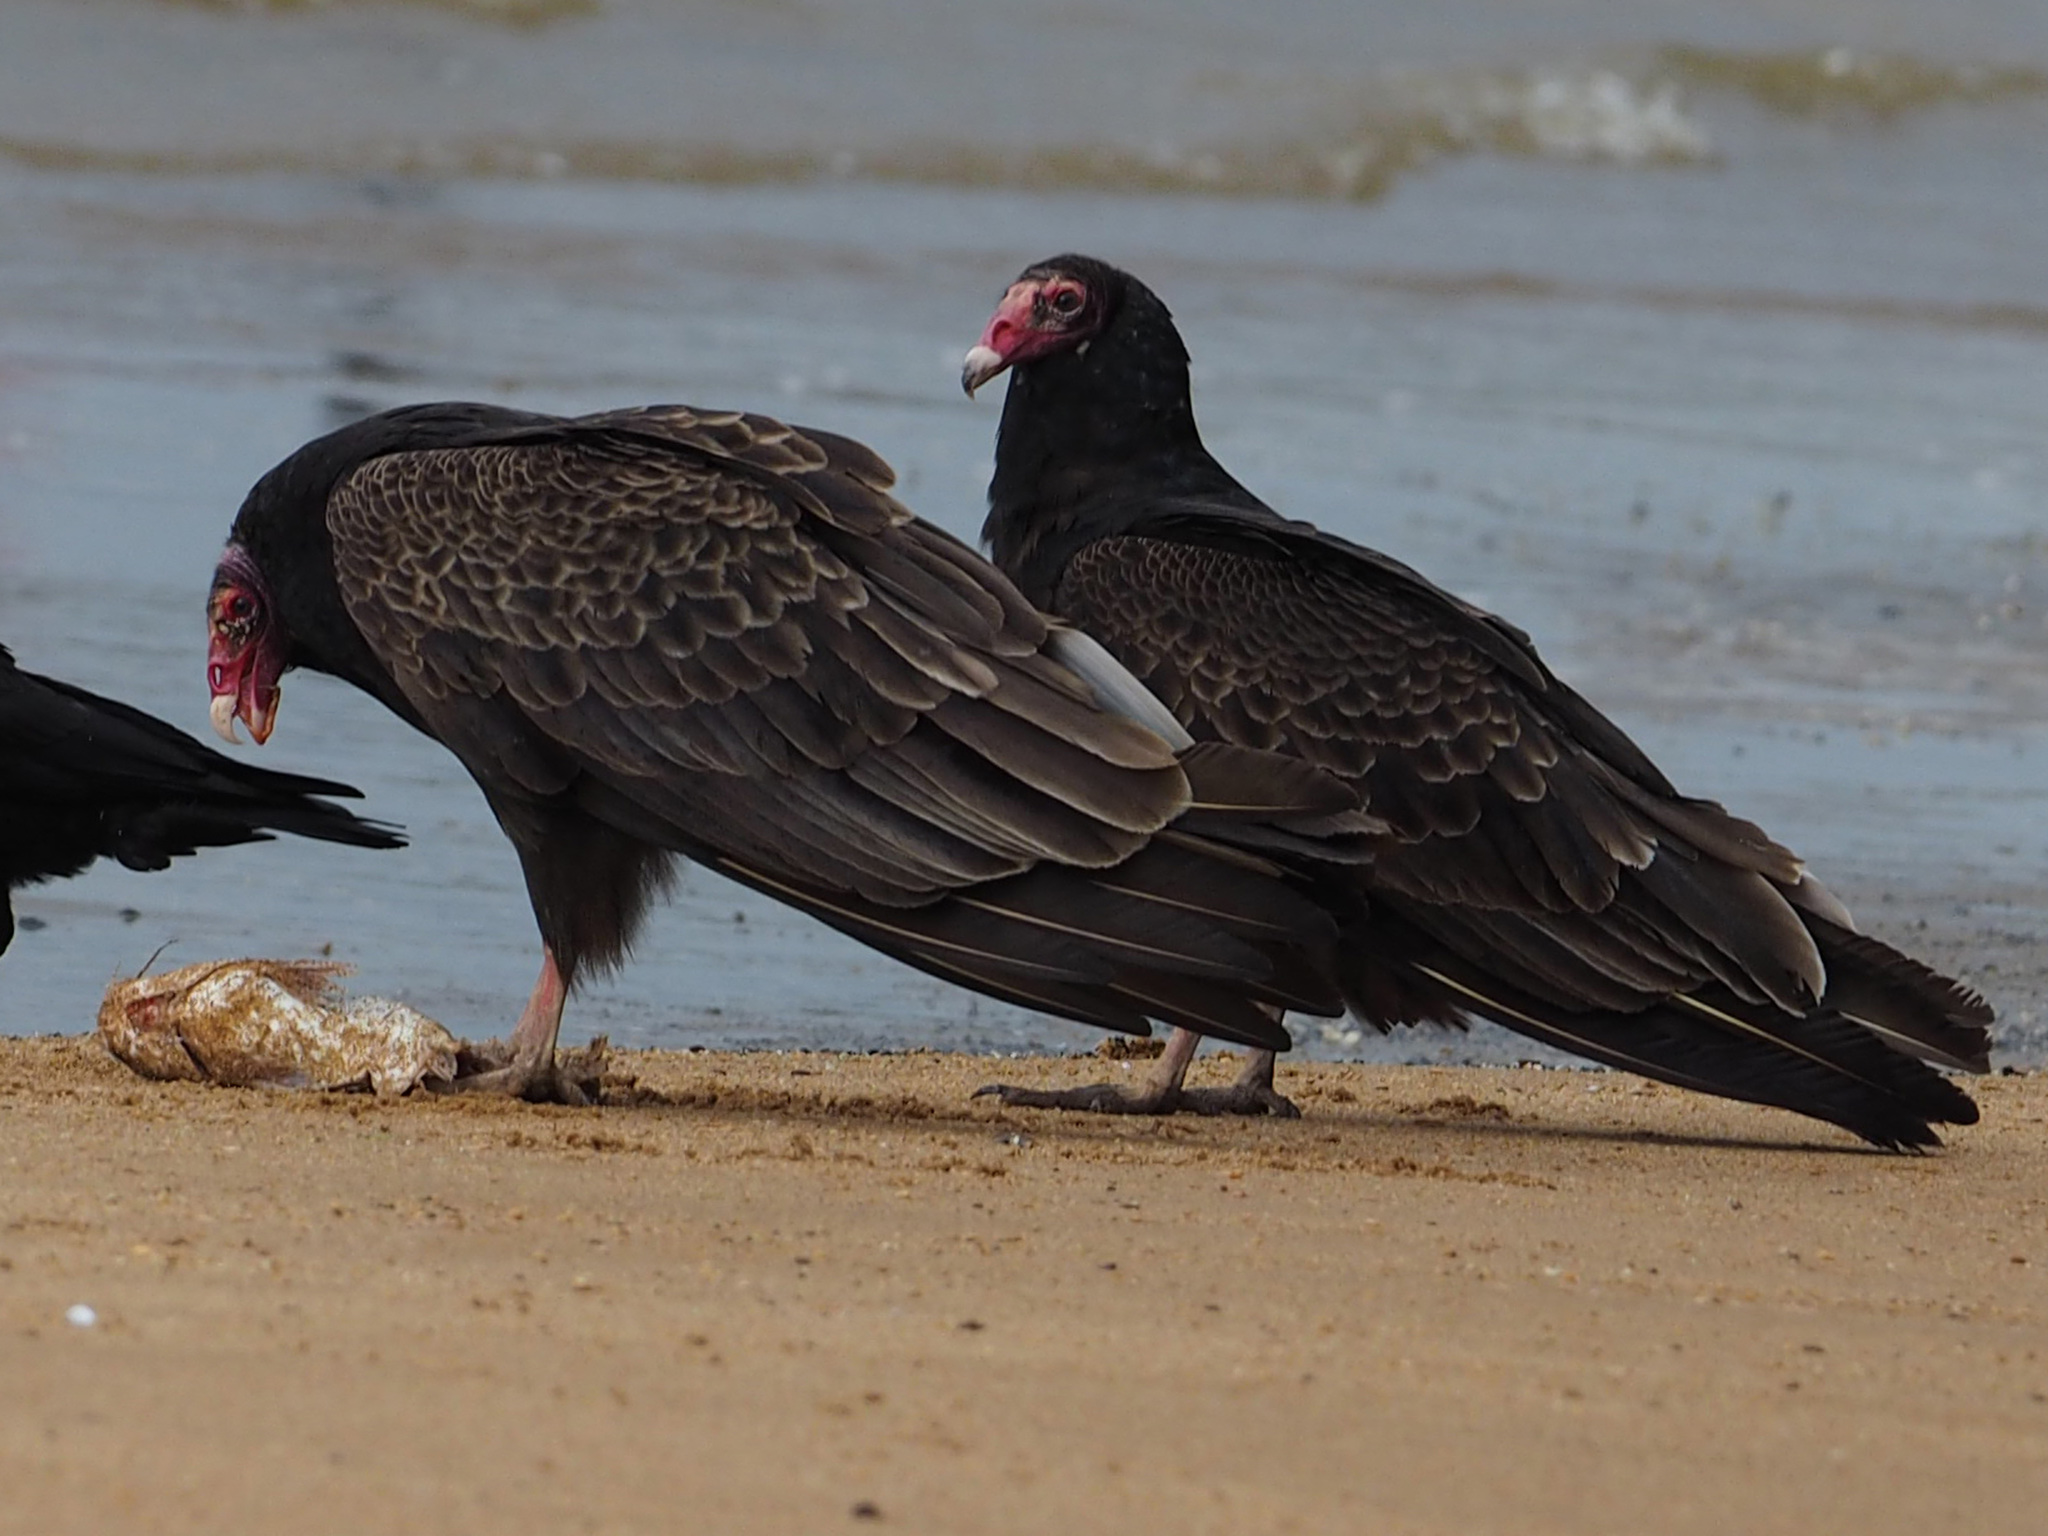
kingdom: Animalia
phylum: Chordata
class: Aves
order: Accipitriformes
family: Cathartidae
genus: Cathartes
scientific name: Cathartes aura
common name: Turkey vulture
